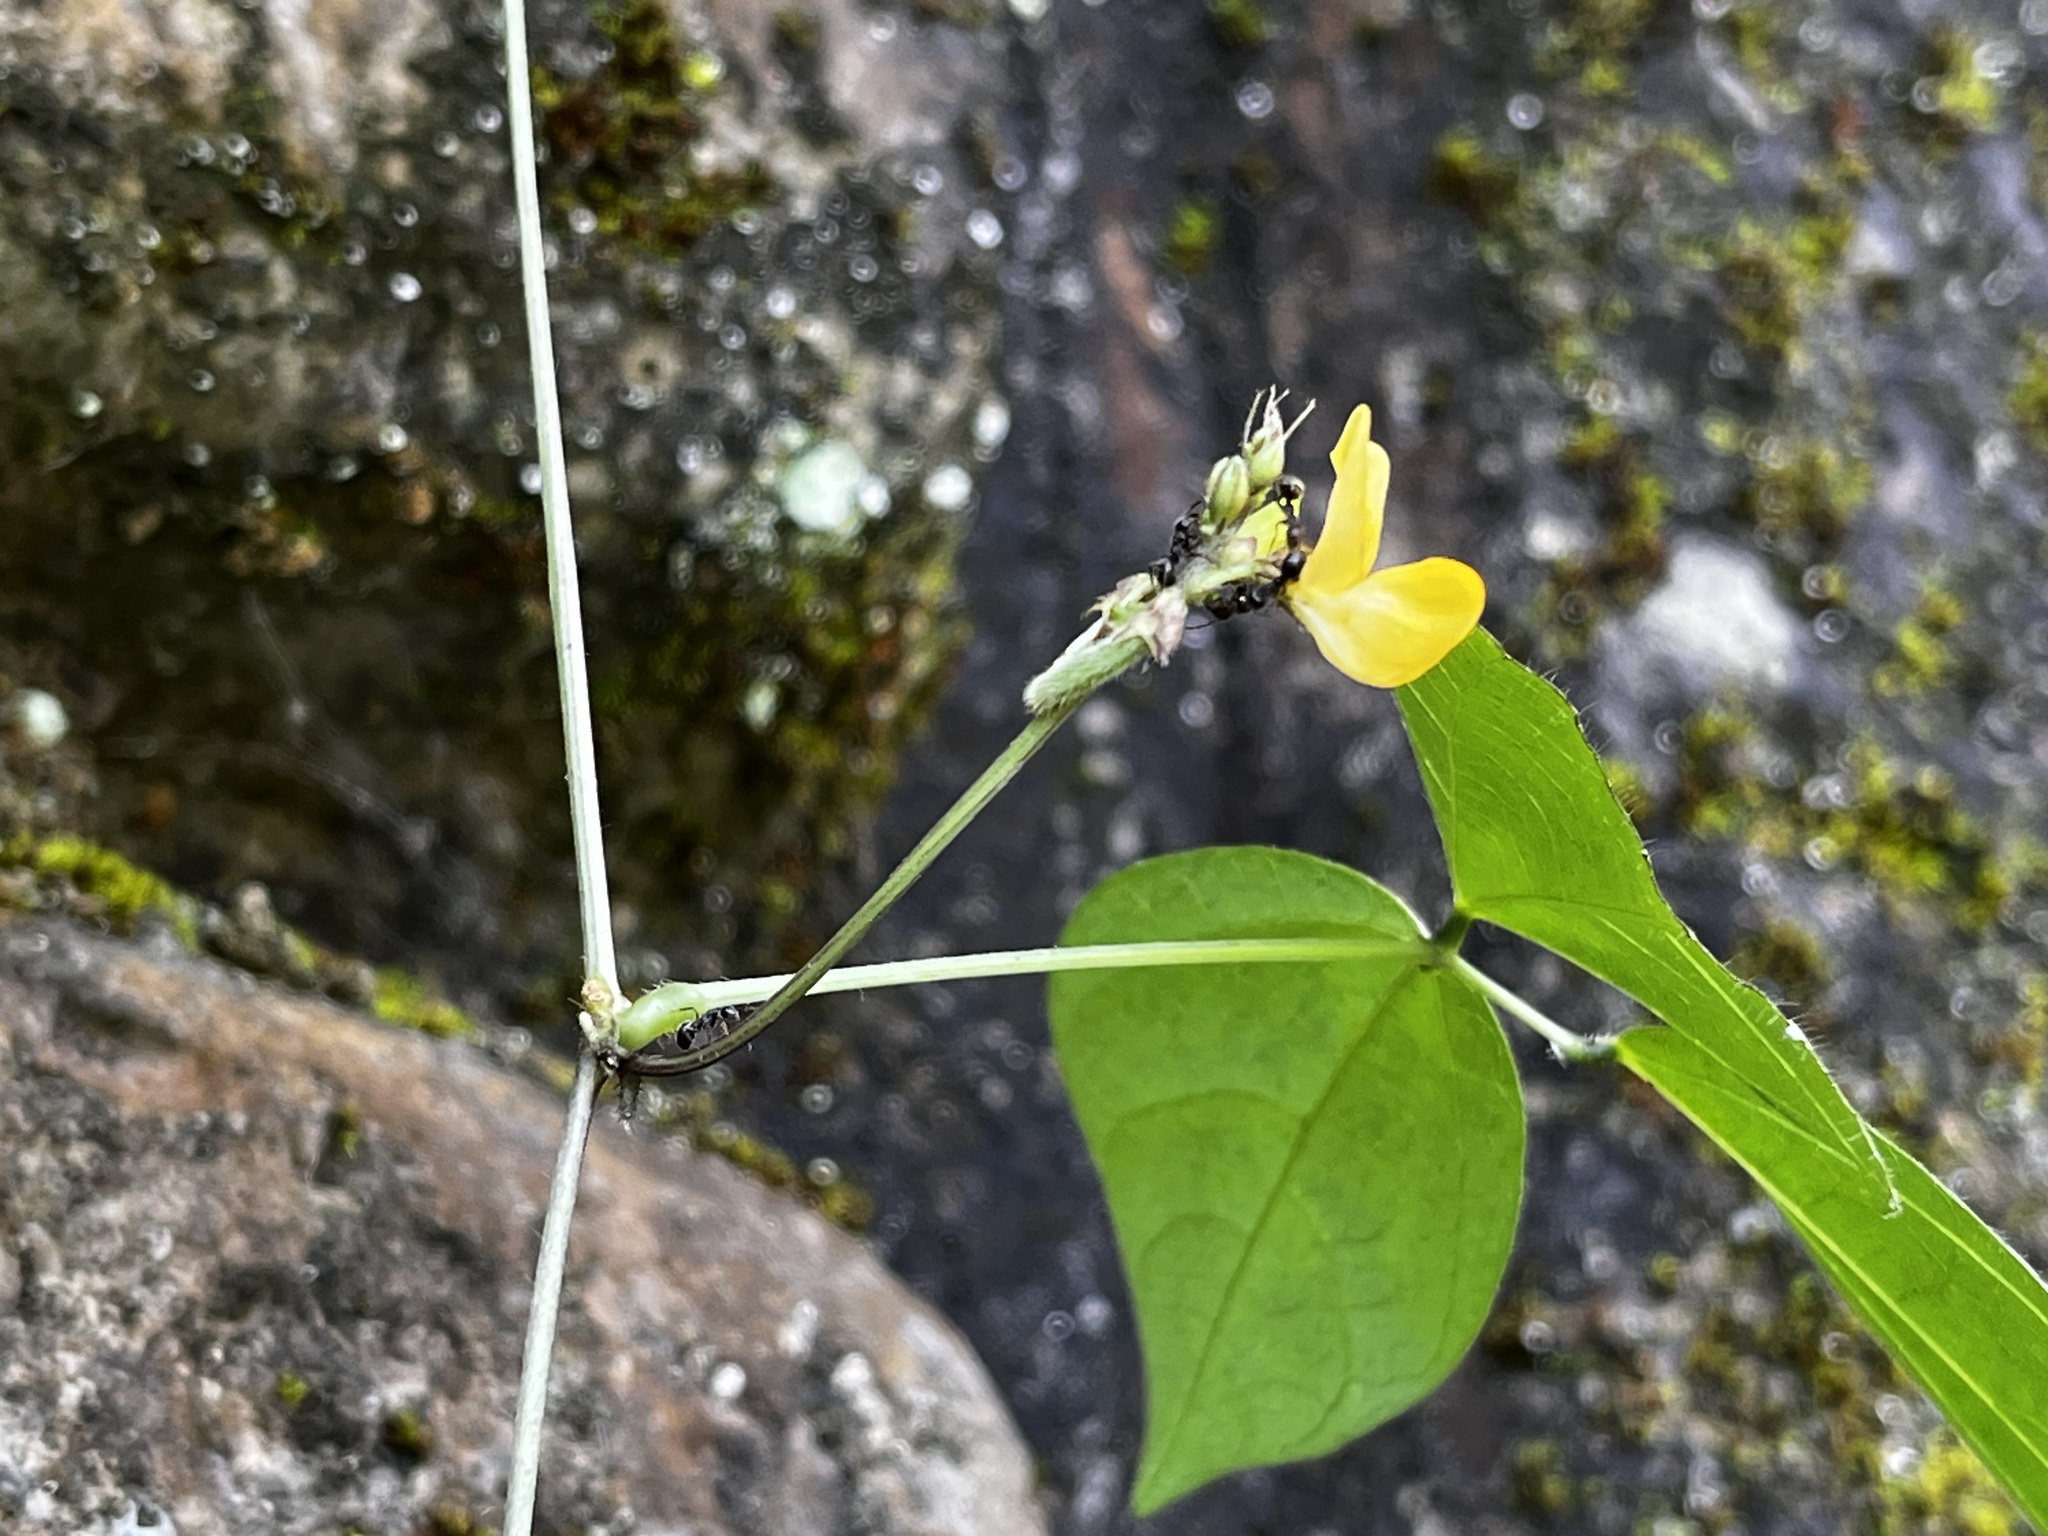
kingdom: Plantae
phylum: Tracheophyta
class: Magnoliopsida
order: Fabales
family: Fabaceae
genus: Vigna
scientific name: Vigna hosei
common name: Sarawak-bean
